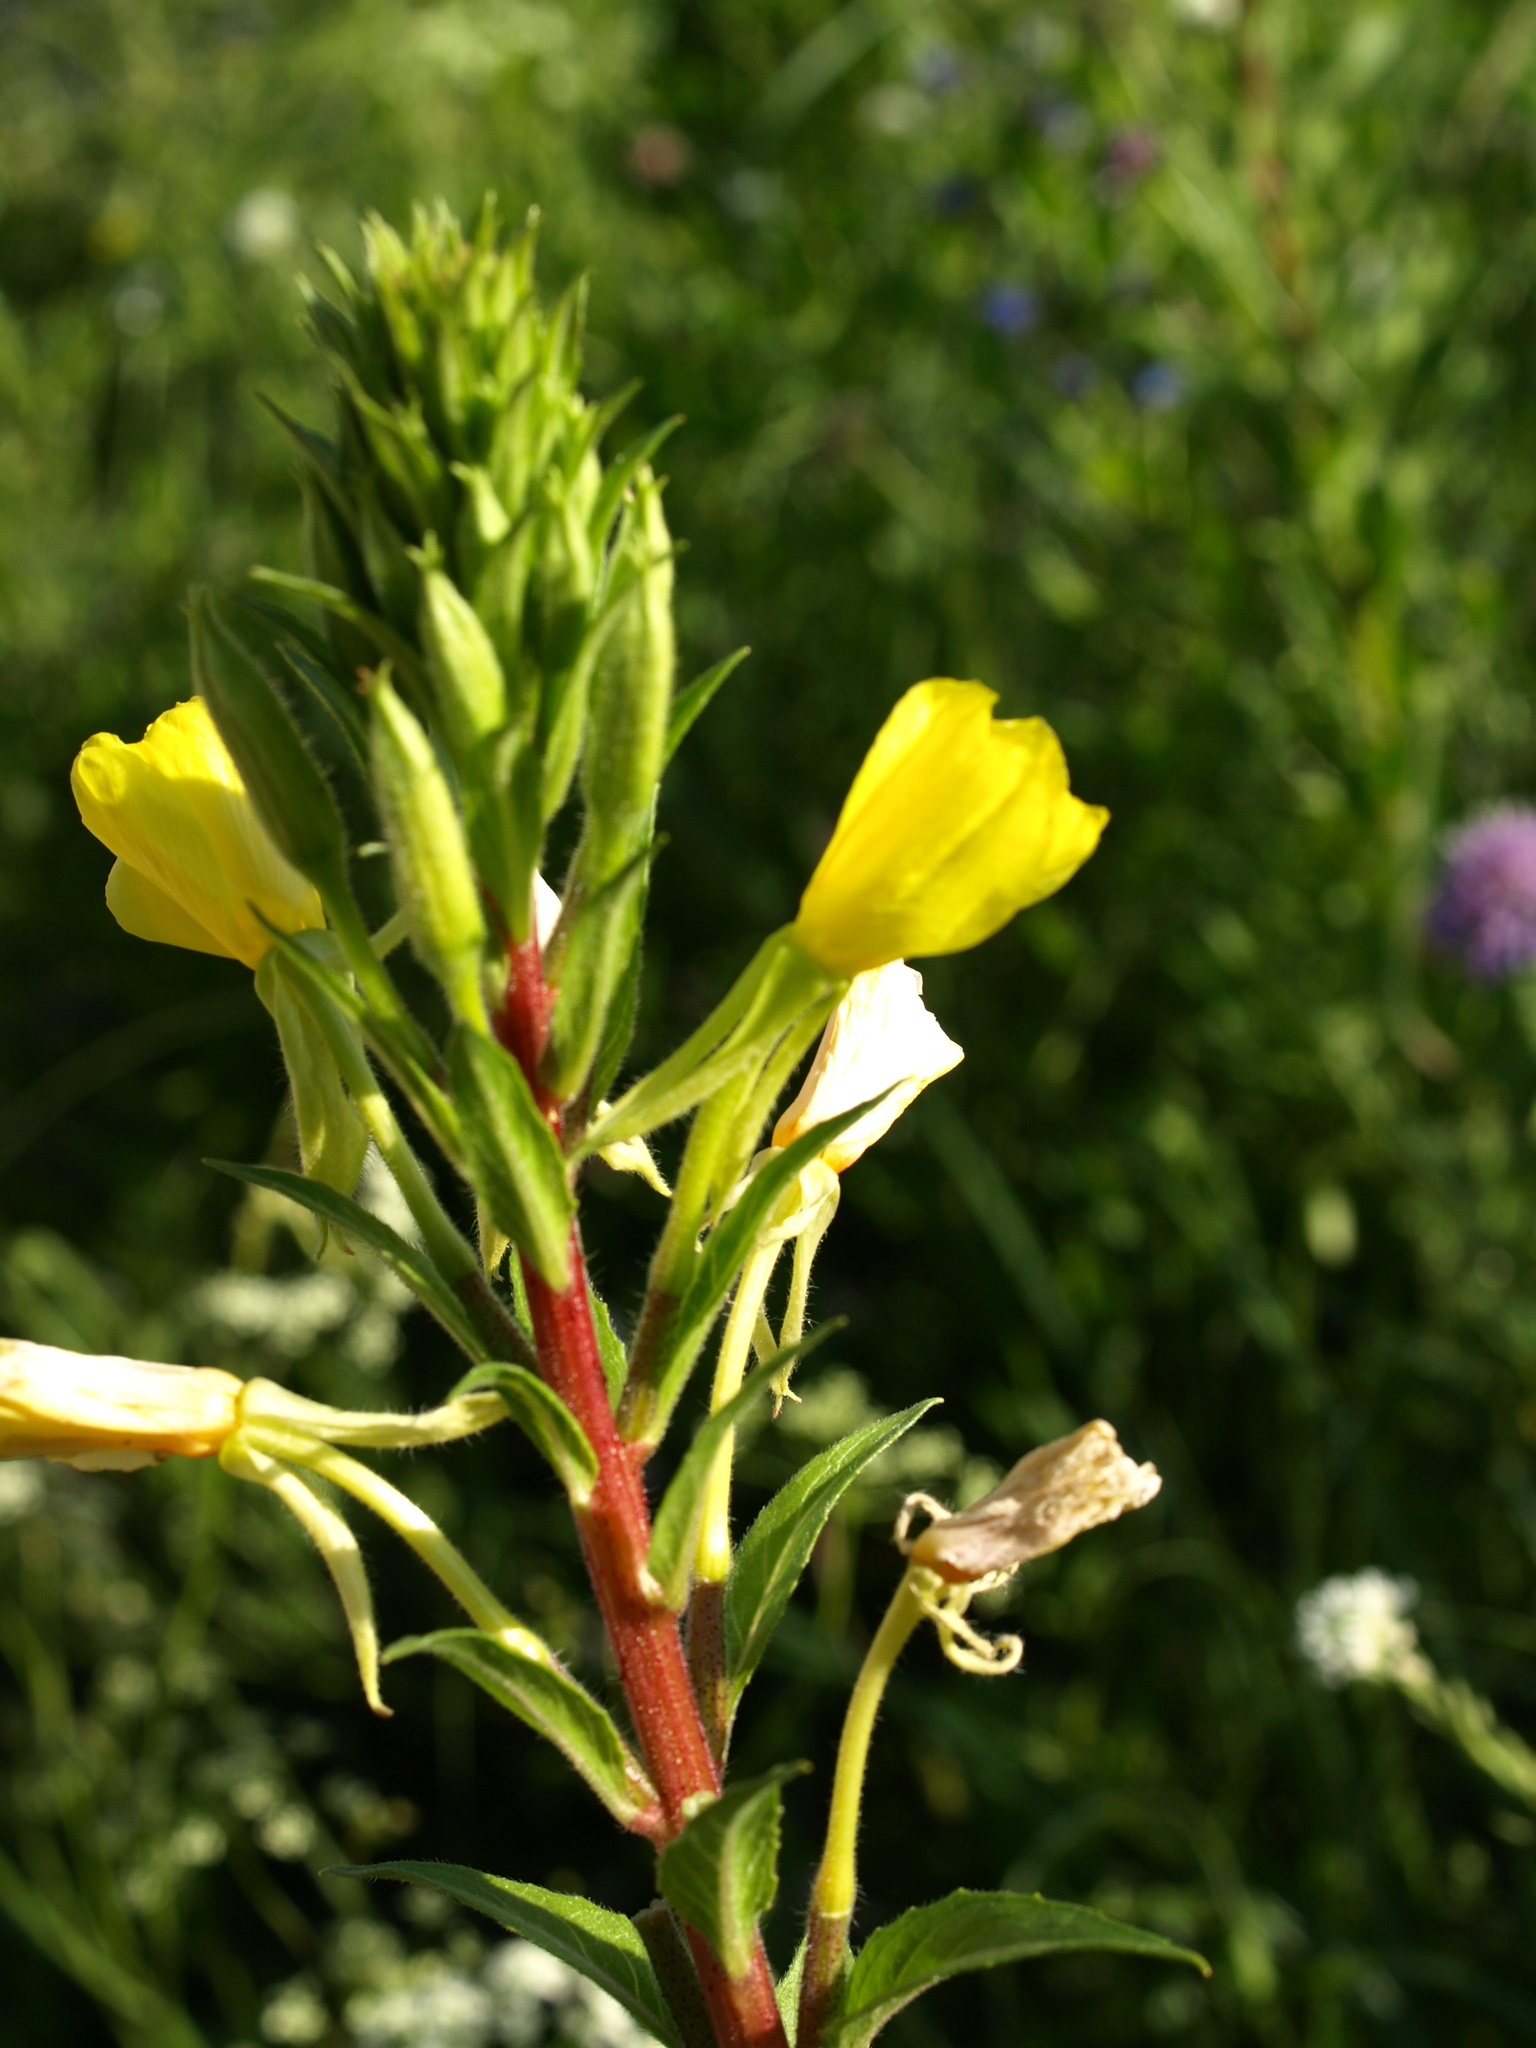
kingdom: Plantae
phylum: Tracheophyta
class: Magnoliopsida
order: Myrtales
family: Onagraceae
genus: Oenothera
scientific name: Oenothera rubricaulis
